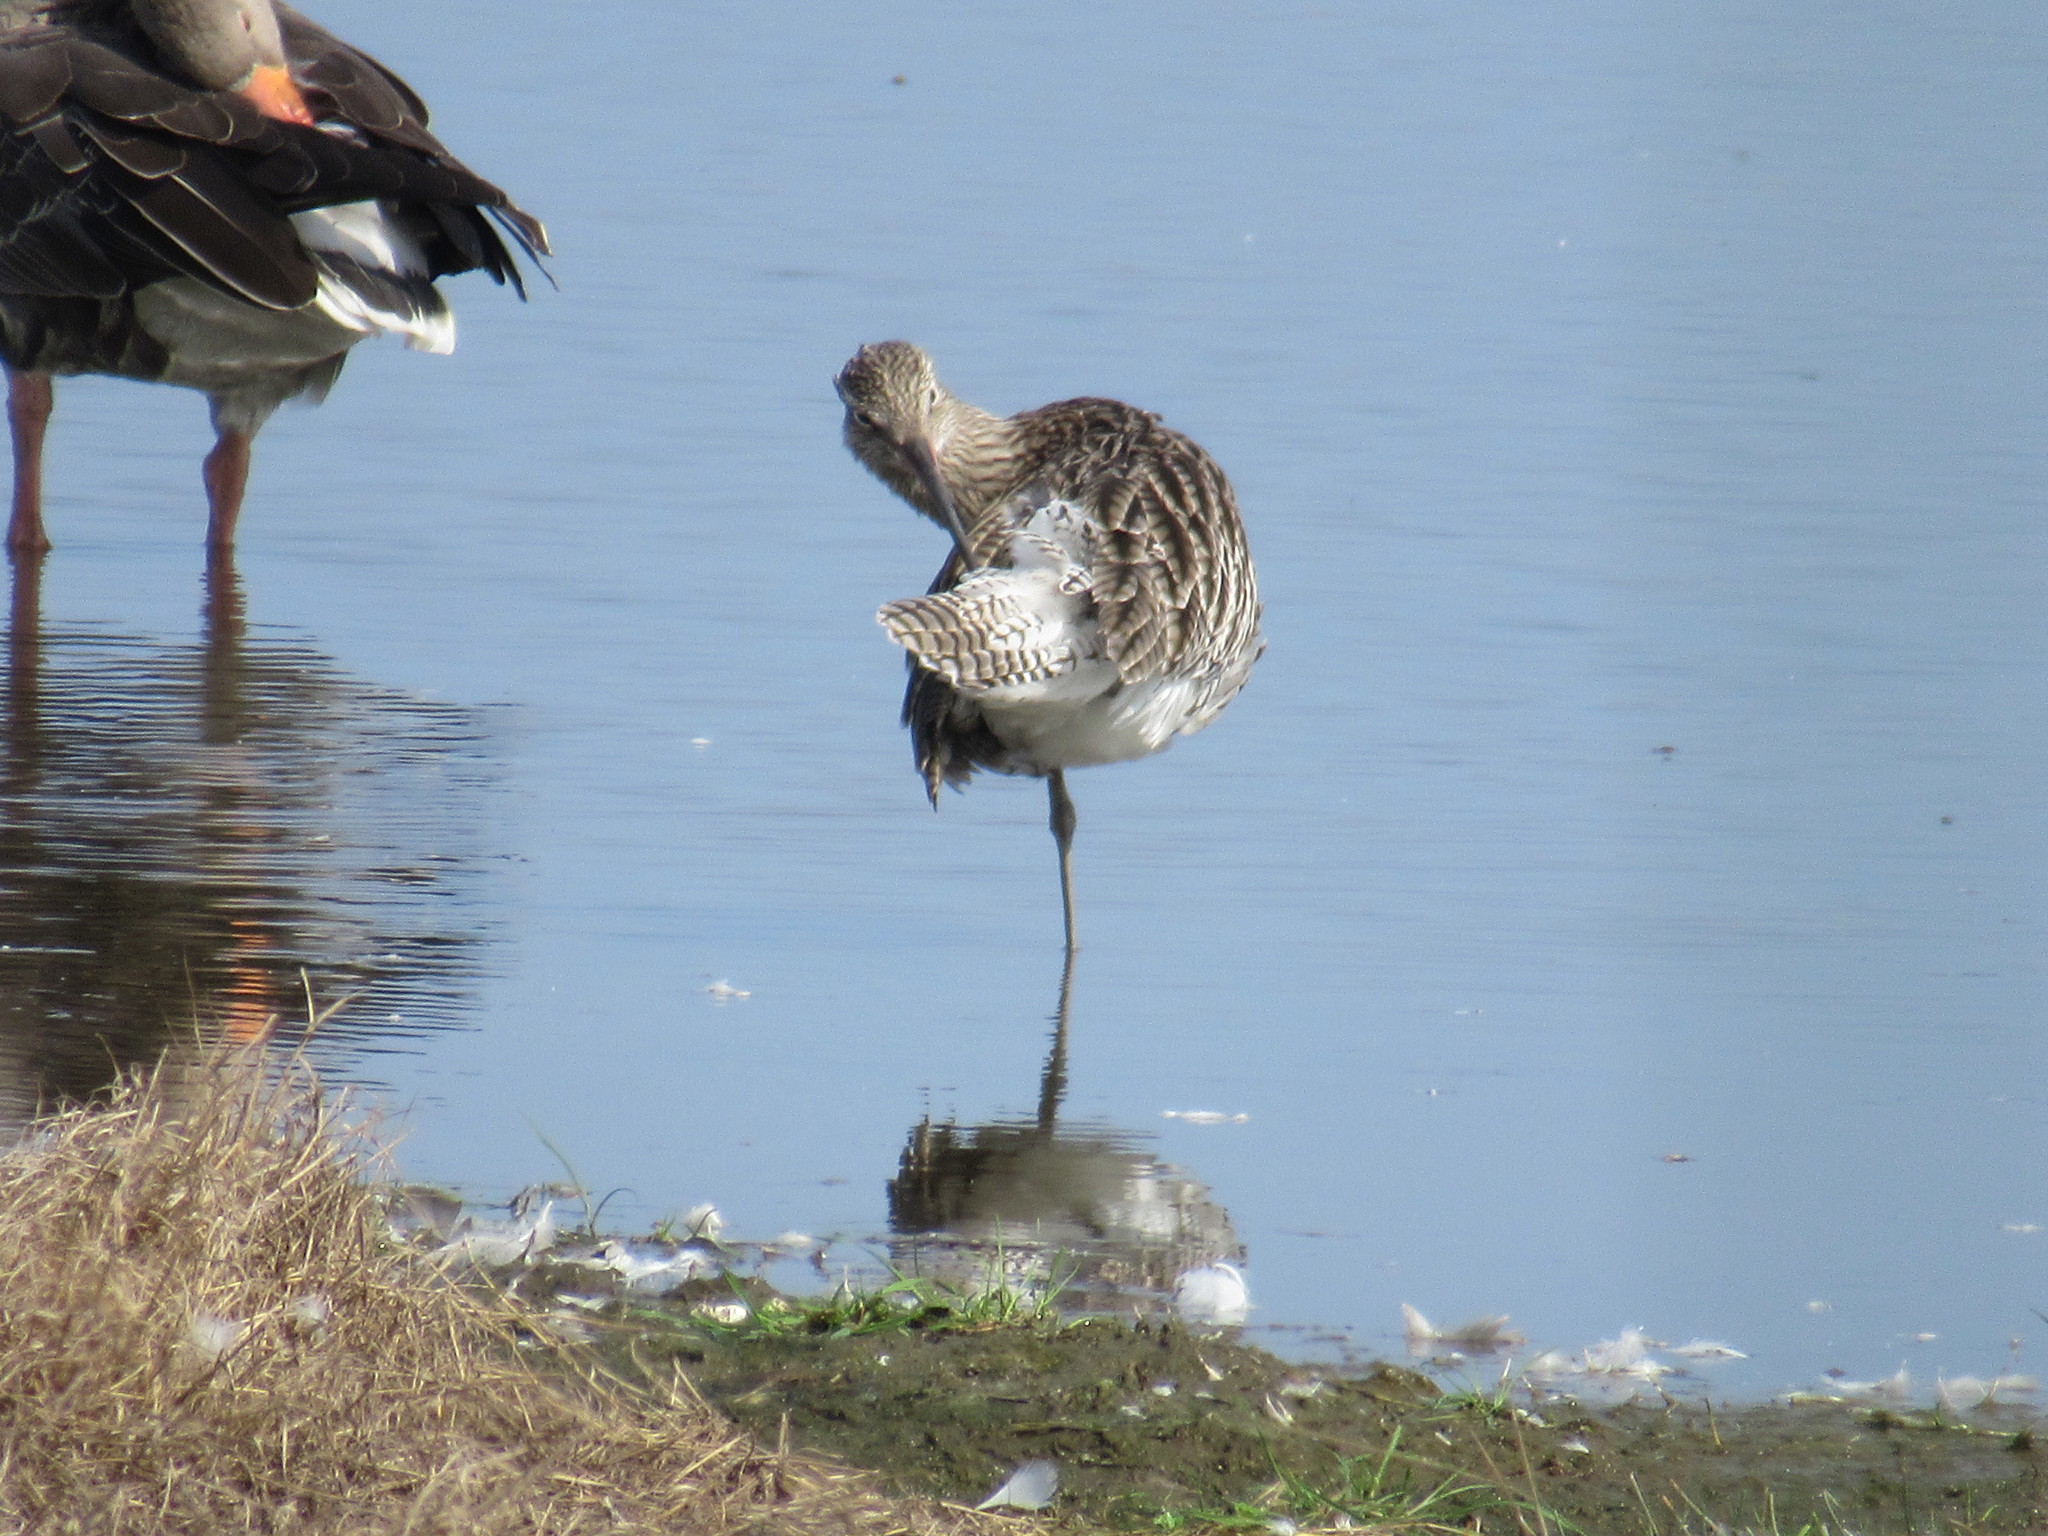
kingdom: Animalia
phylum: Chordata
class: Aves
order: Charadriiformes
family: Scolopacidae
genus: Numenius
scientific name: Numenius arquata
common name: Eurasian curlew
